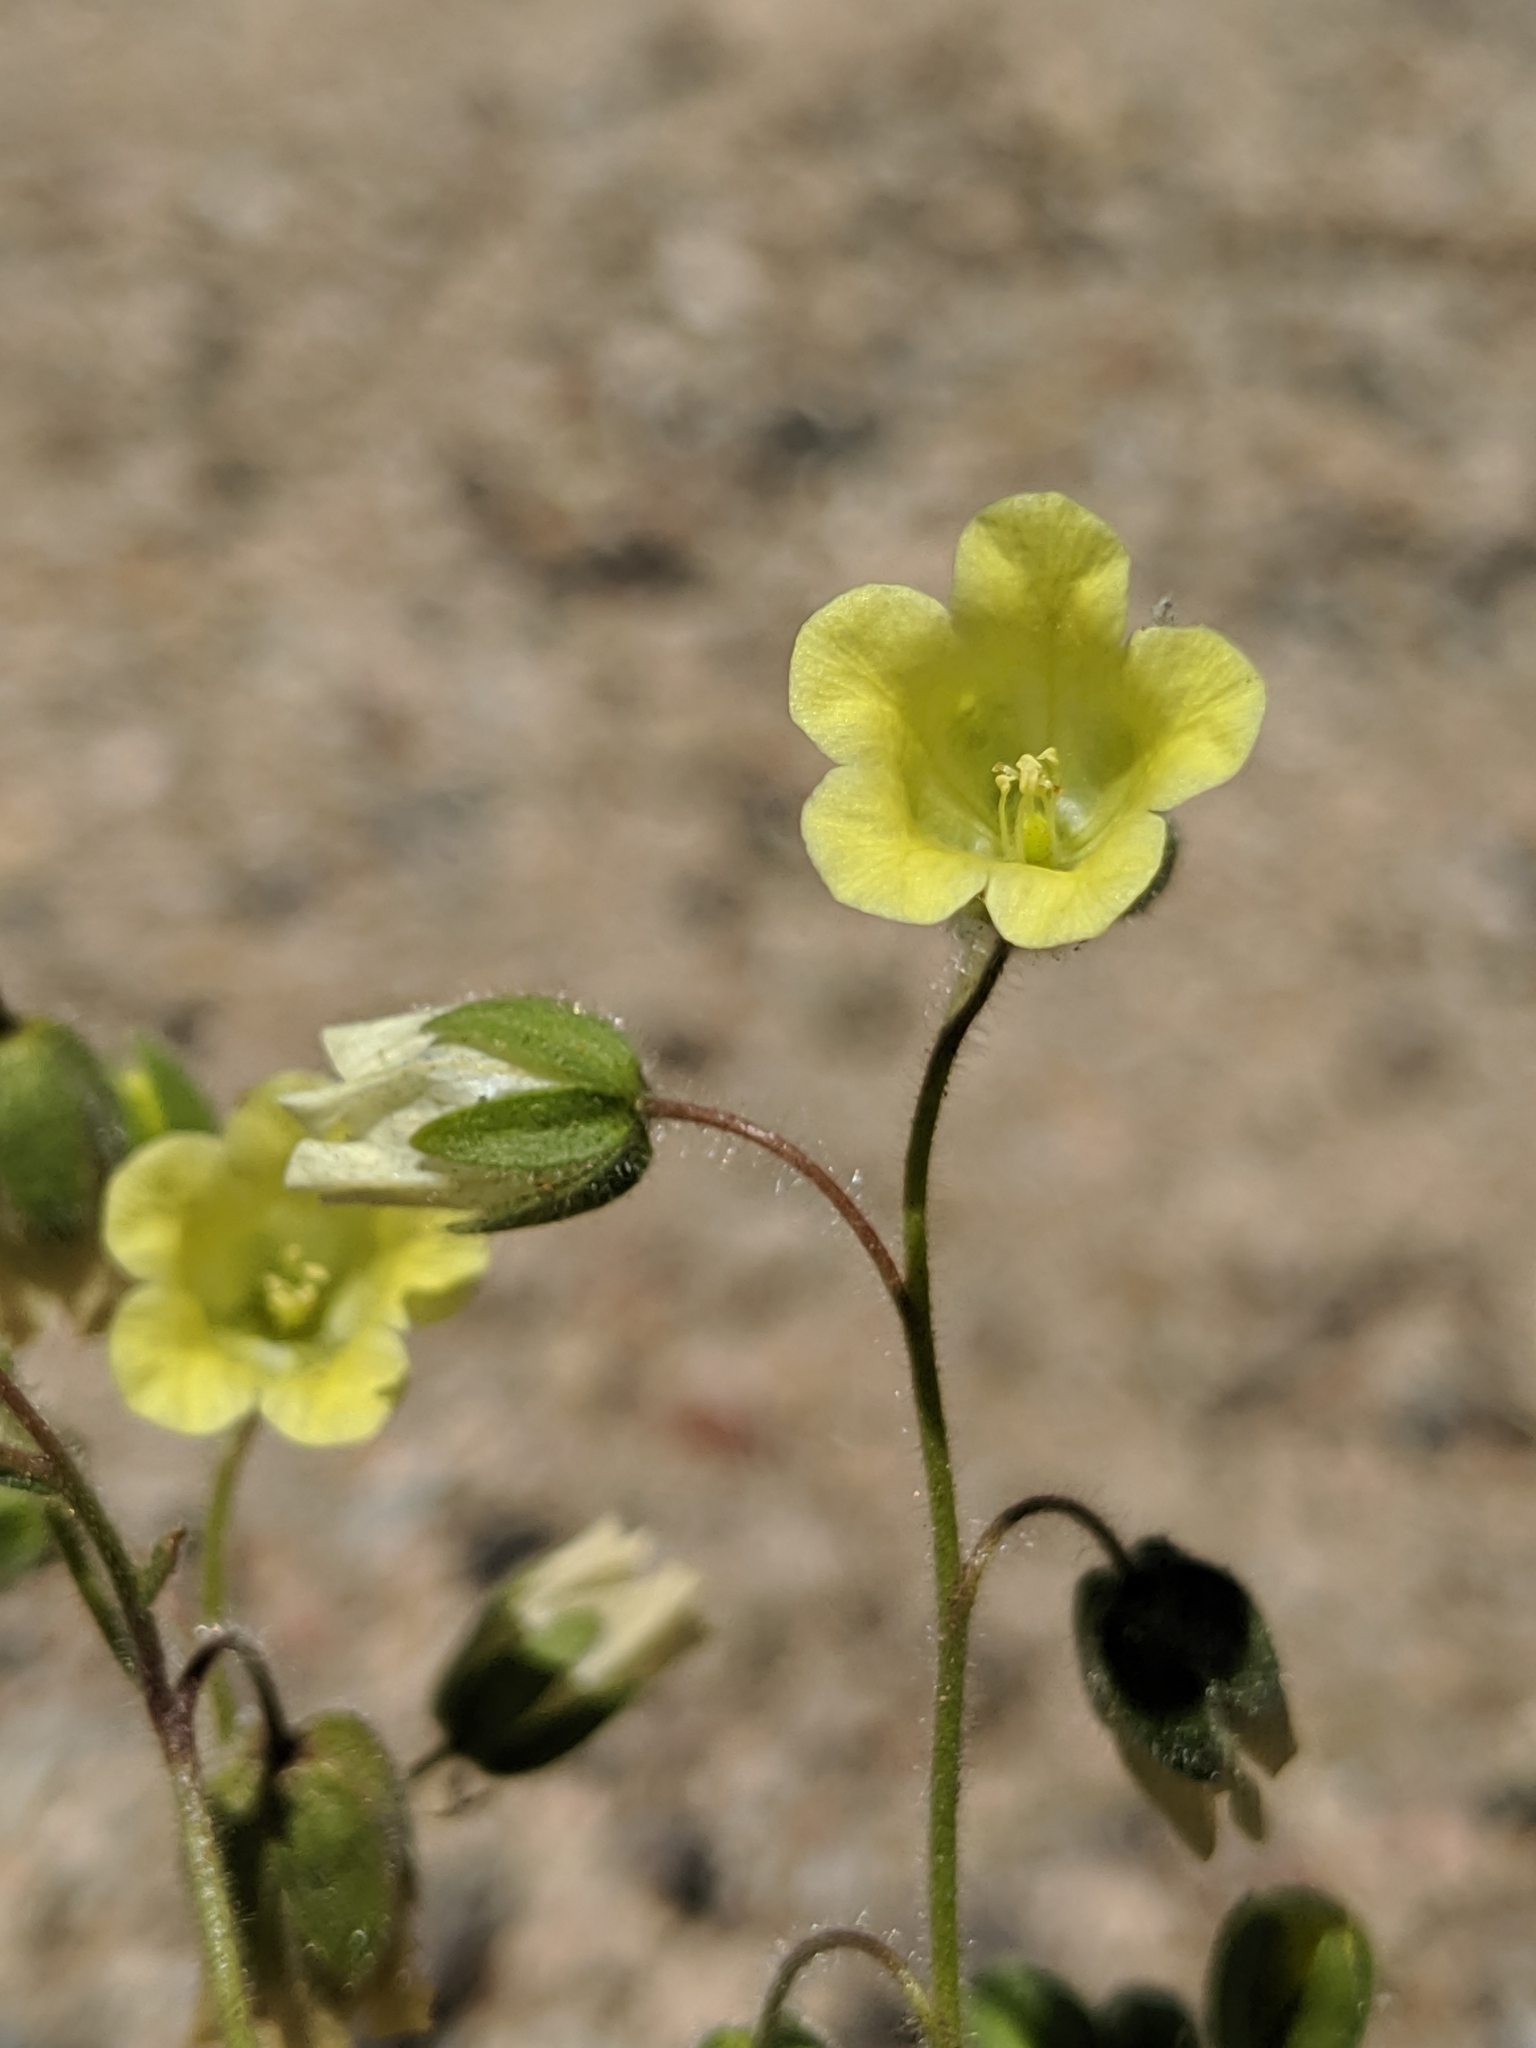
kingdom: Plantae
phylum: Tracheophyta
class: Magnoliopsida
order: Boraginales
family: Hydrophyllaceae
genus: Emmenanthe
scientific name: Emmenanthe penduliflora
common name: Whispering-bells
